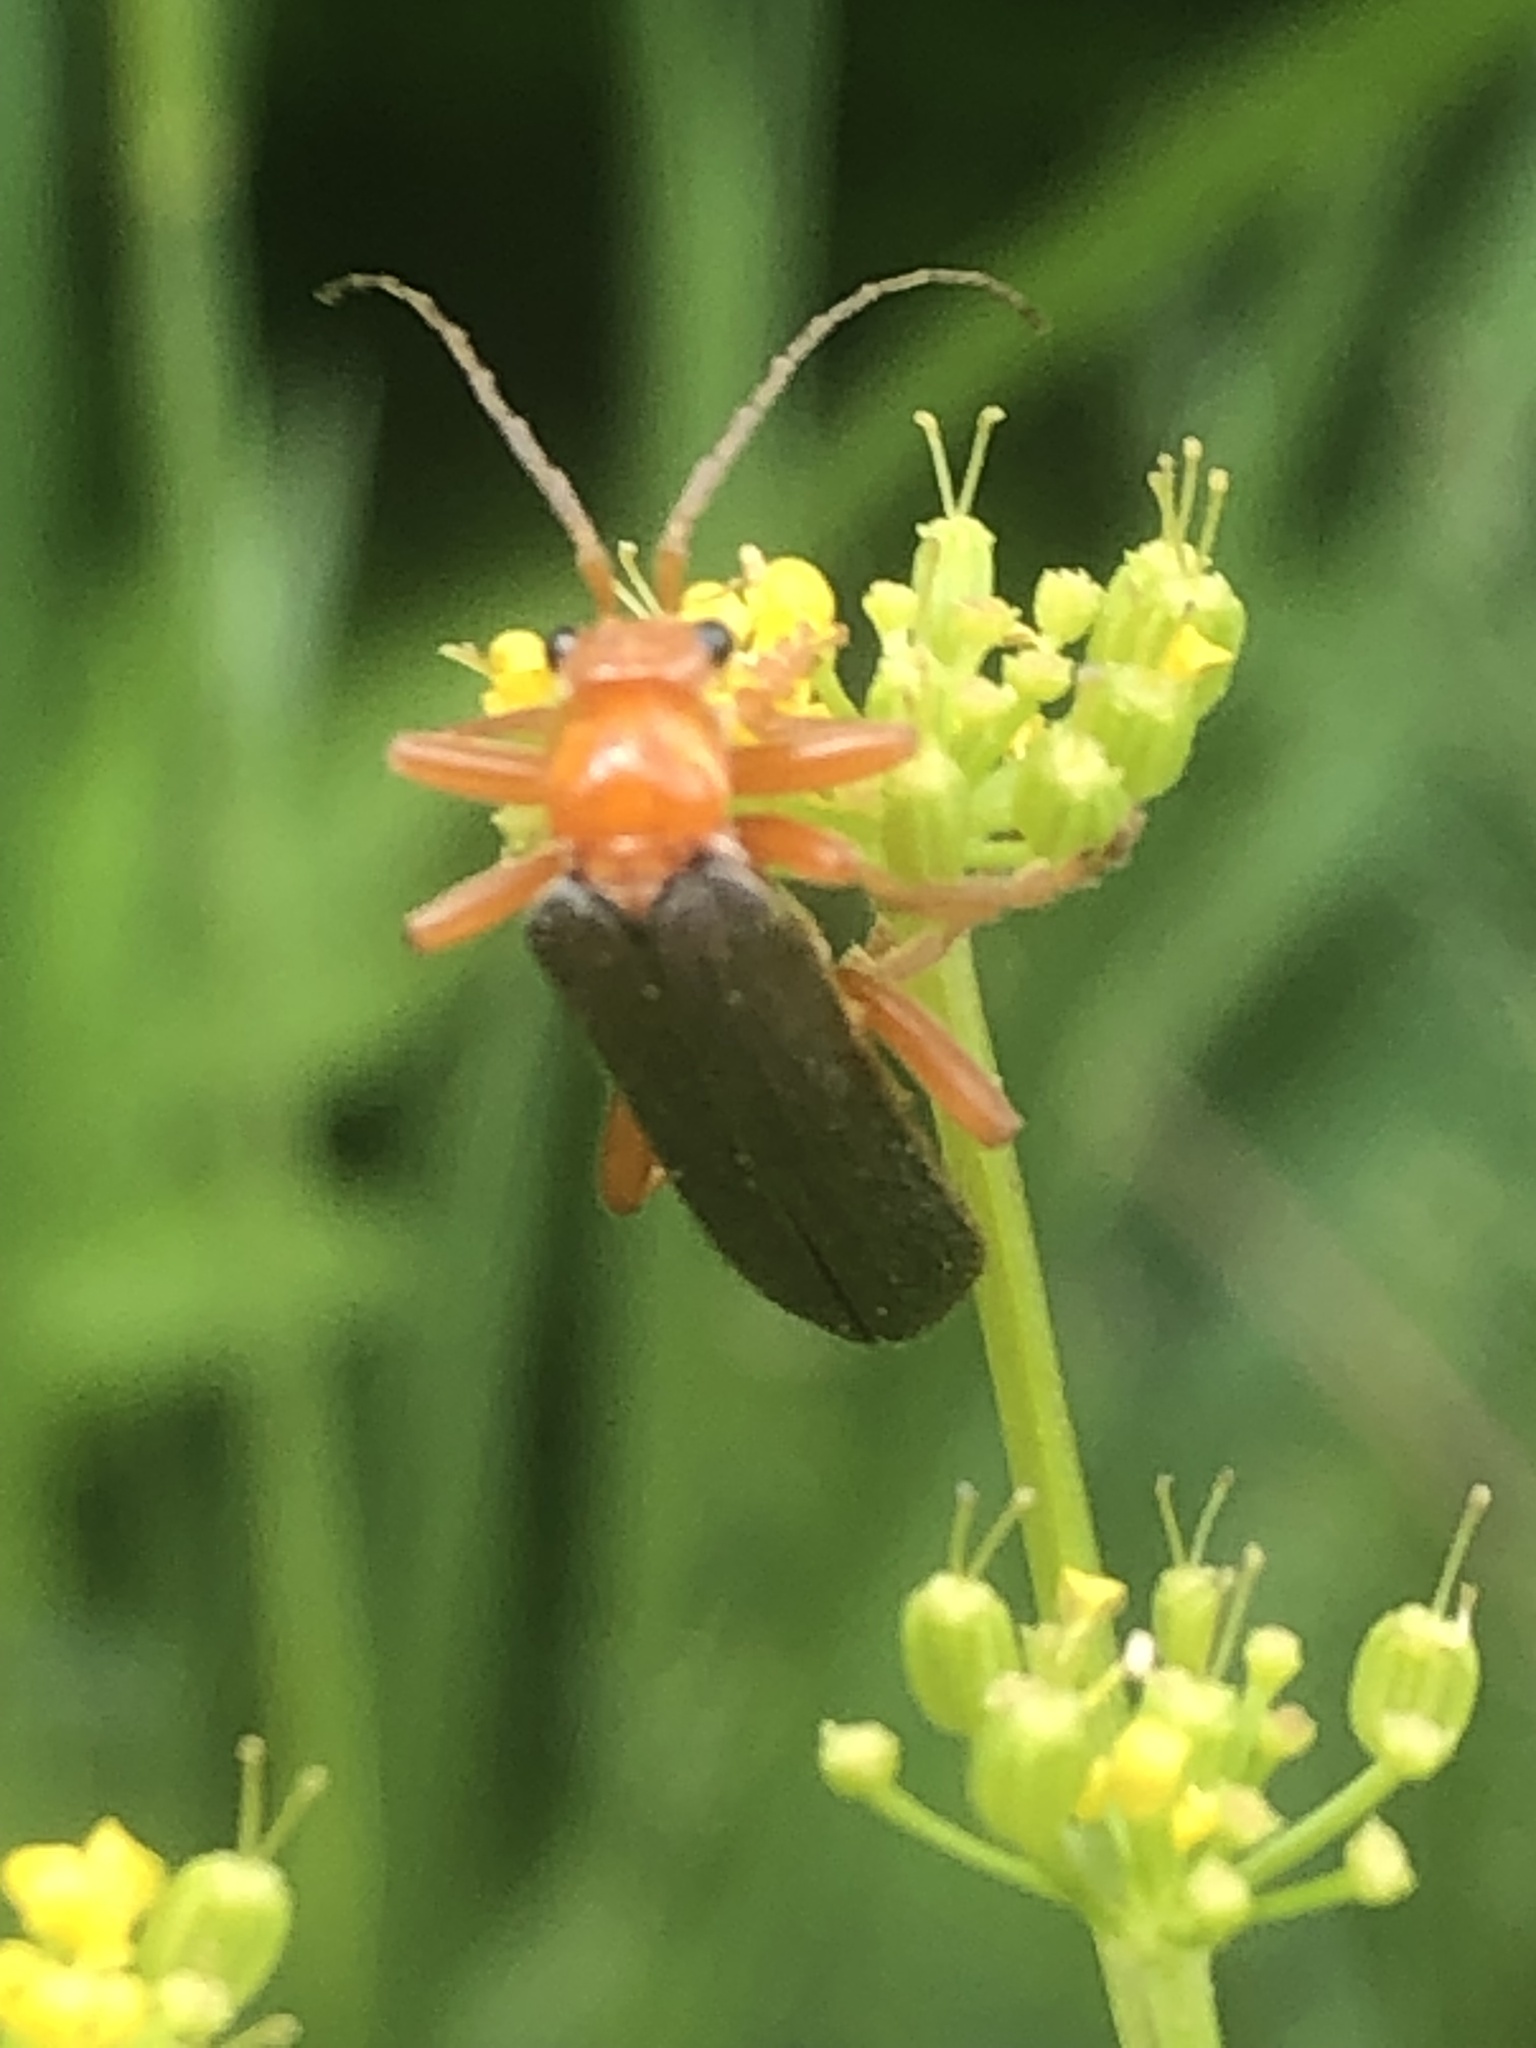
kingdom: Animalia
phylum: Arthropoda
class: Insecta
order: Coleoptera
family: Cantharidae
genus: Pacificanthia
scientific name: Pacificanthia rotundicollis
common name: Brown leatherwing beetle
